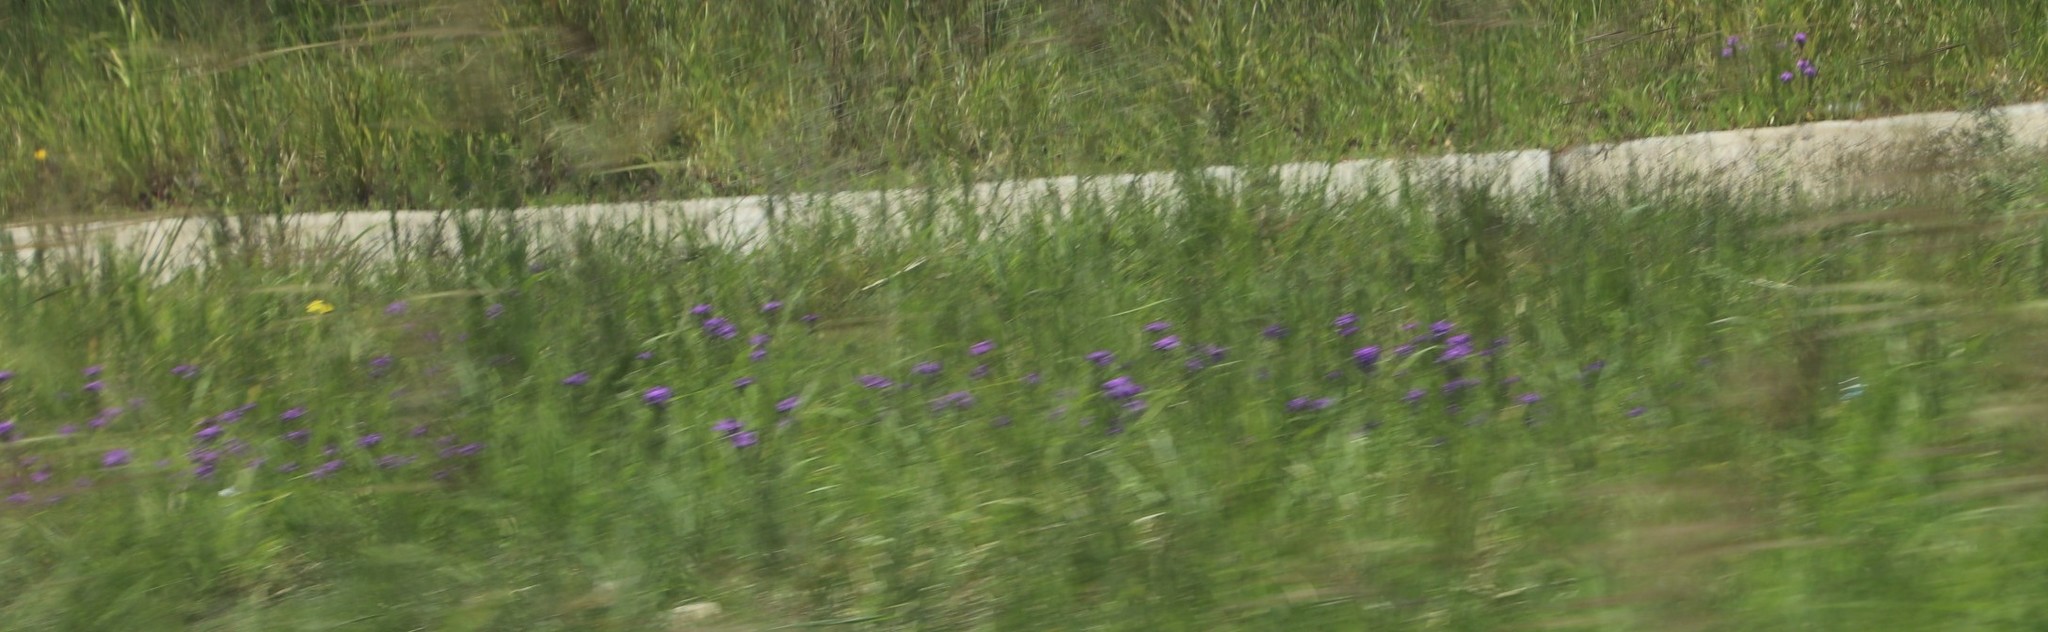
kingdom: Plantae
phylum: Tracheophyta
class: Magnoliopsida
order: Lamiales
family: Verbenaceae
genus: Verbena
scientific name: Verbena aristigera
